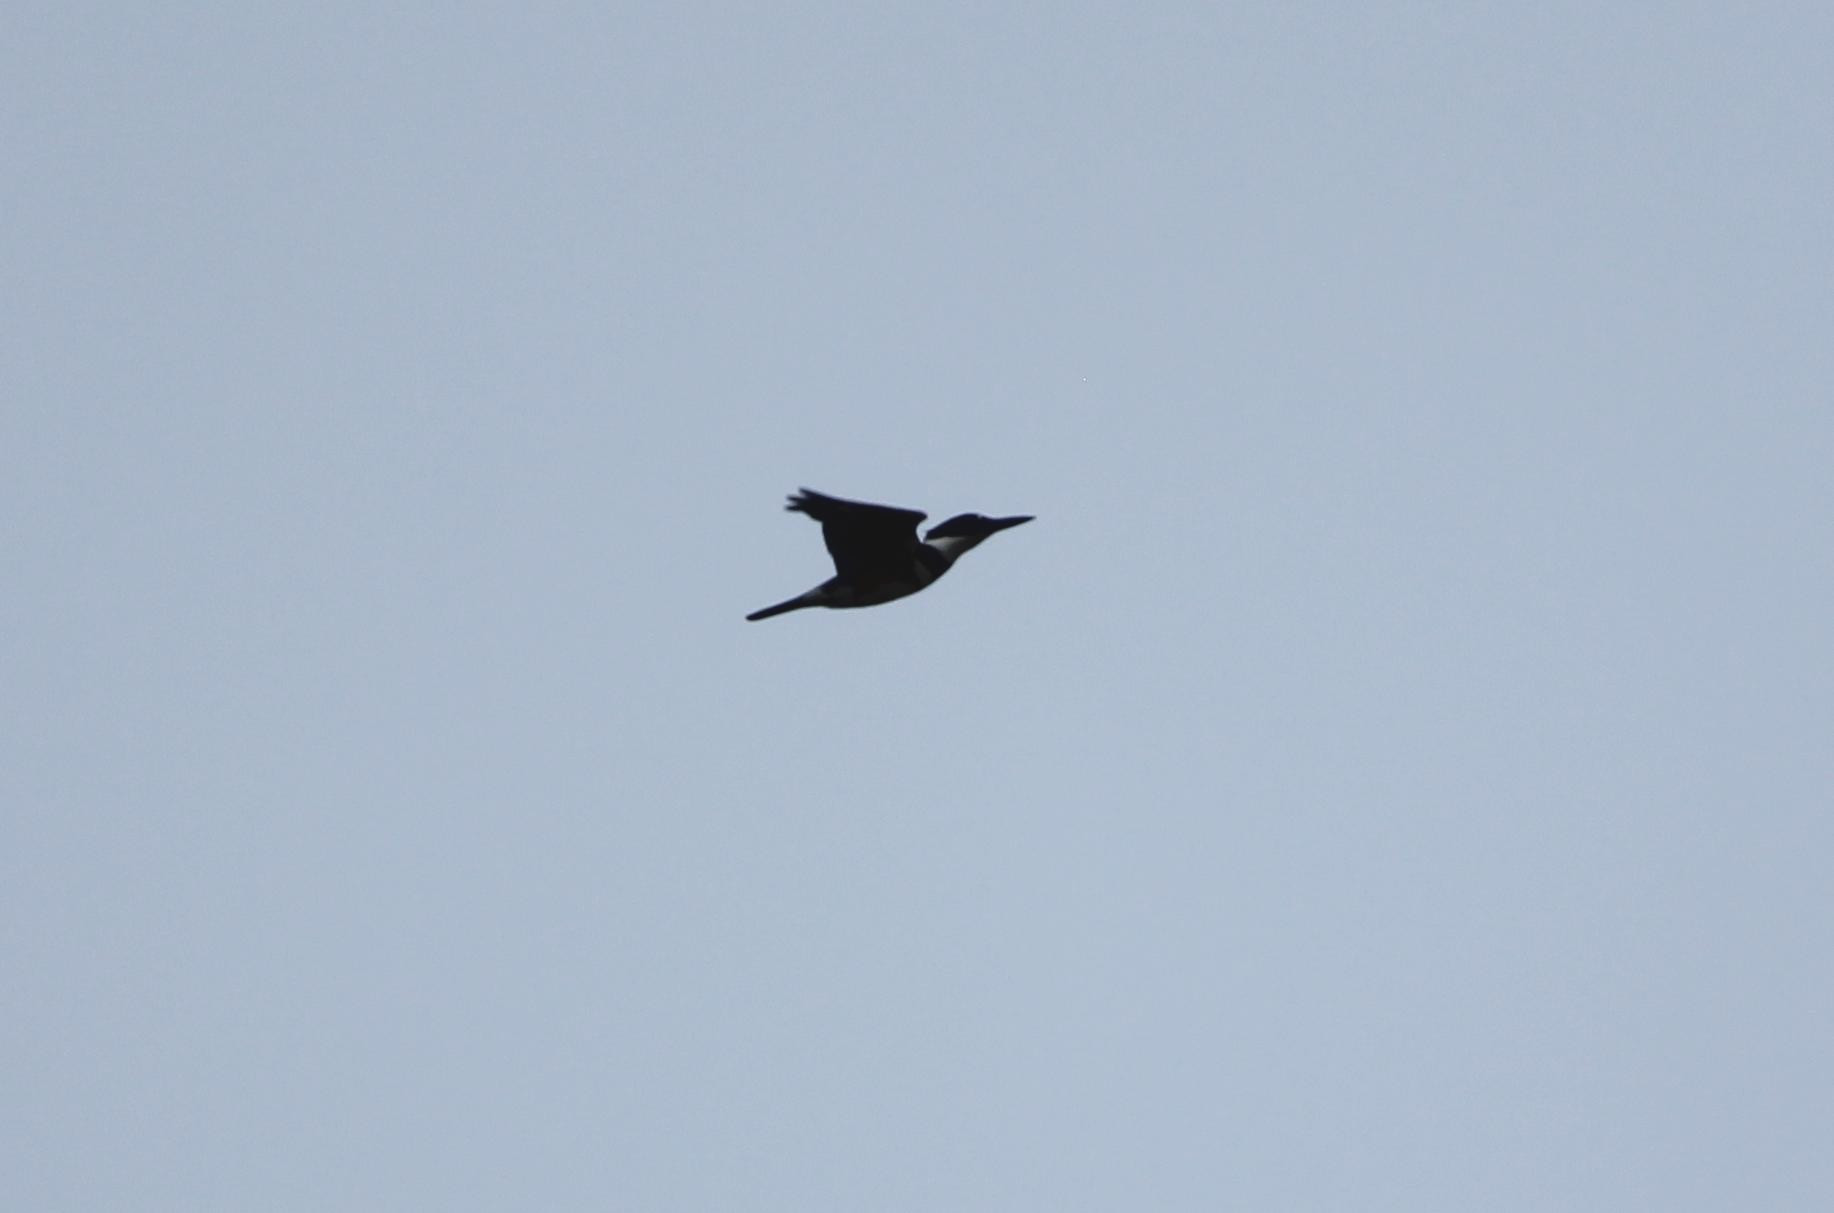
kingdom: Animalia
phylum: Chordata
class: Aves
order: Coraciiformes
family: Alcedinidae
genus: Megaceryle
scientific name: Megaceryle alcyon
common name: Belted kingfisher
